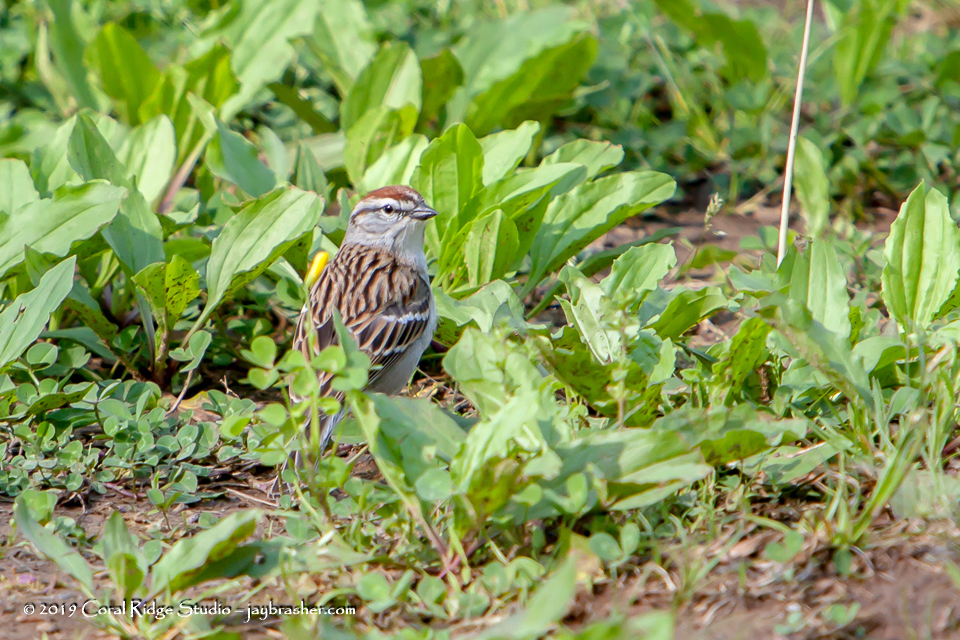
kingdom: Animalia
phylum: Chordata
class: Aves
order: Passeriformes
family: Passerellidae
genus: Spizella
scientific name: Spizella passerina
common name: Chipping sparrow
